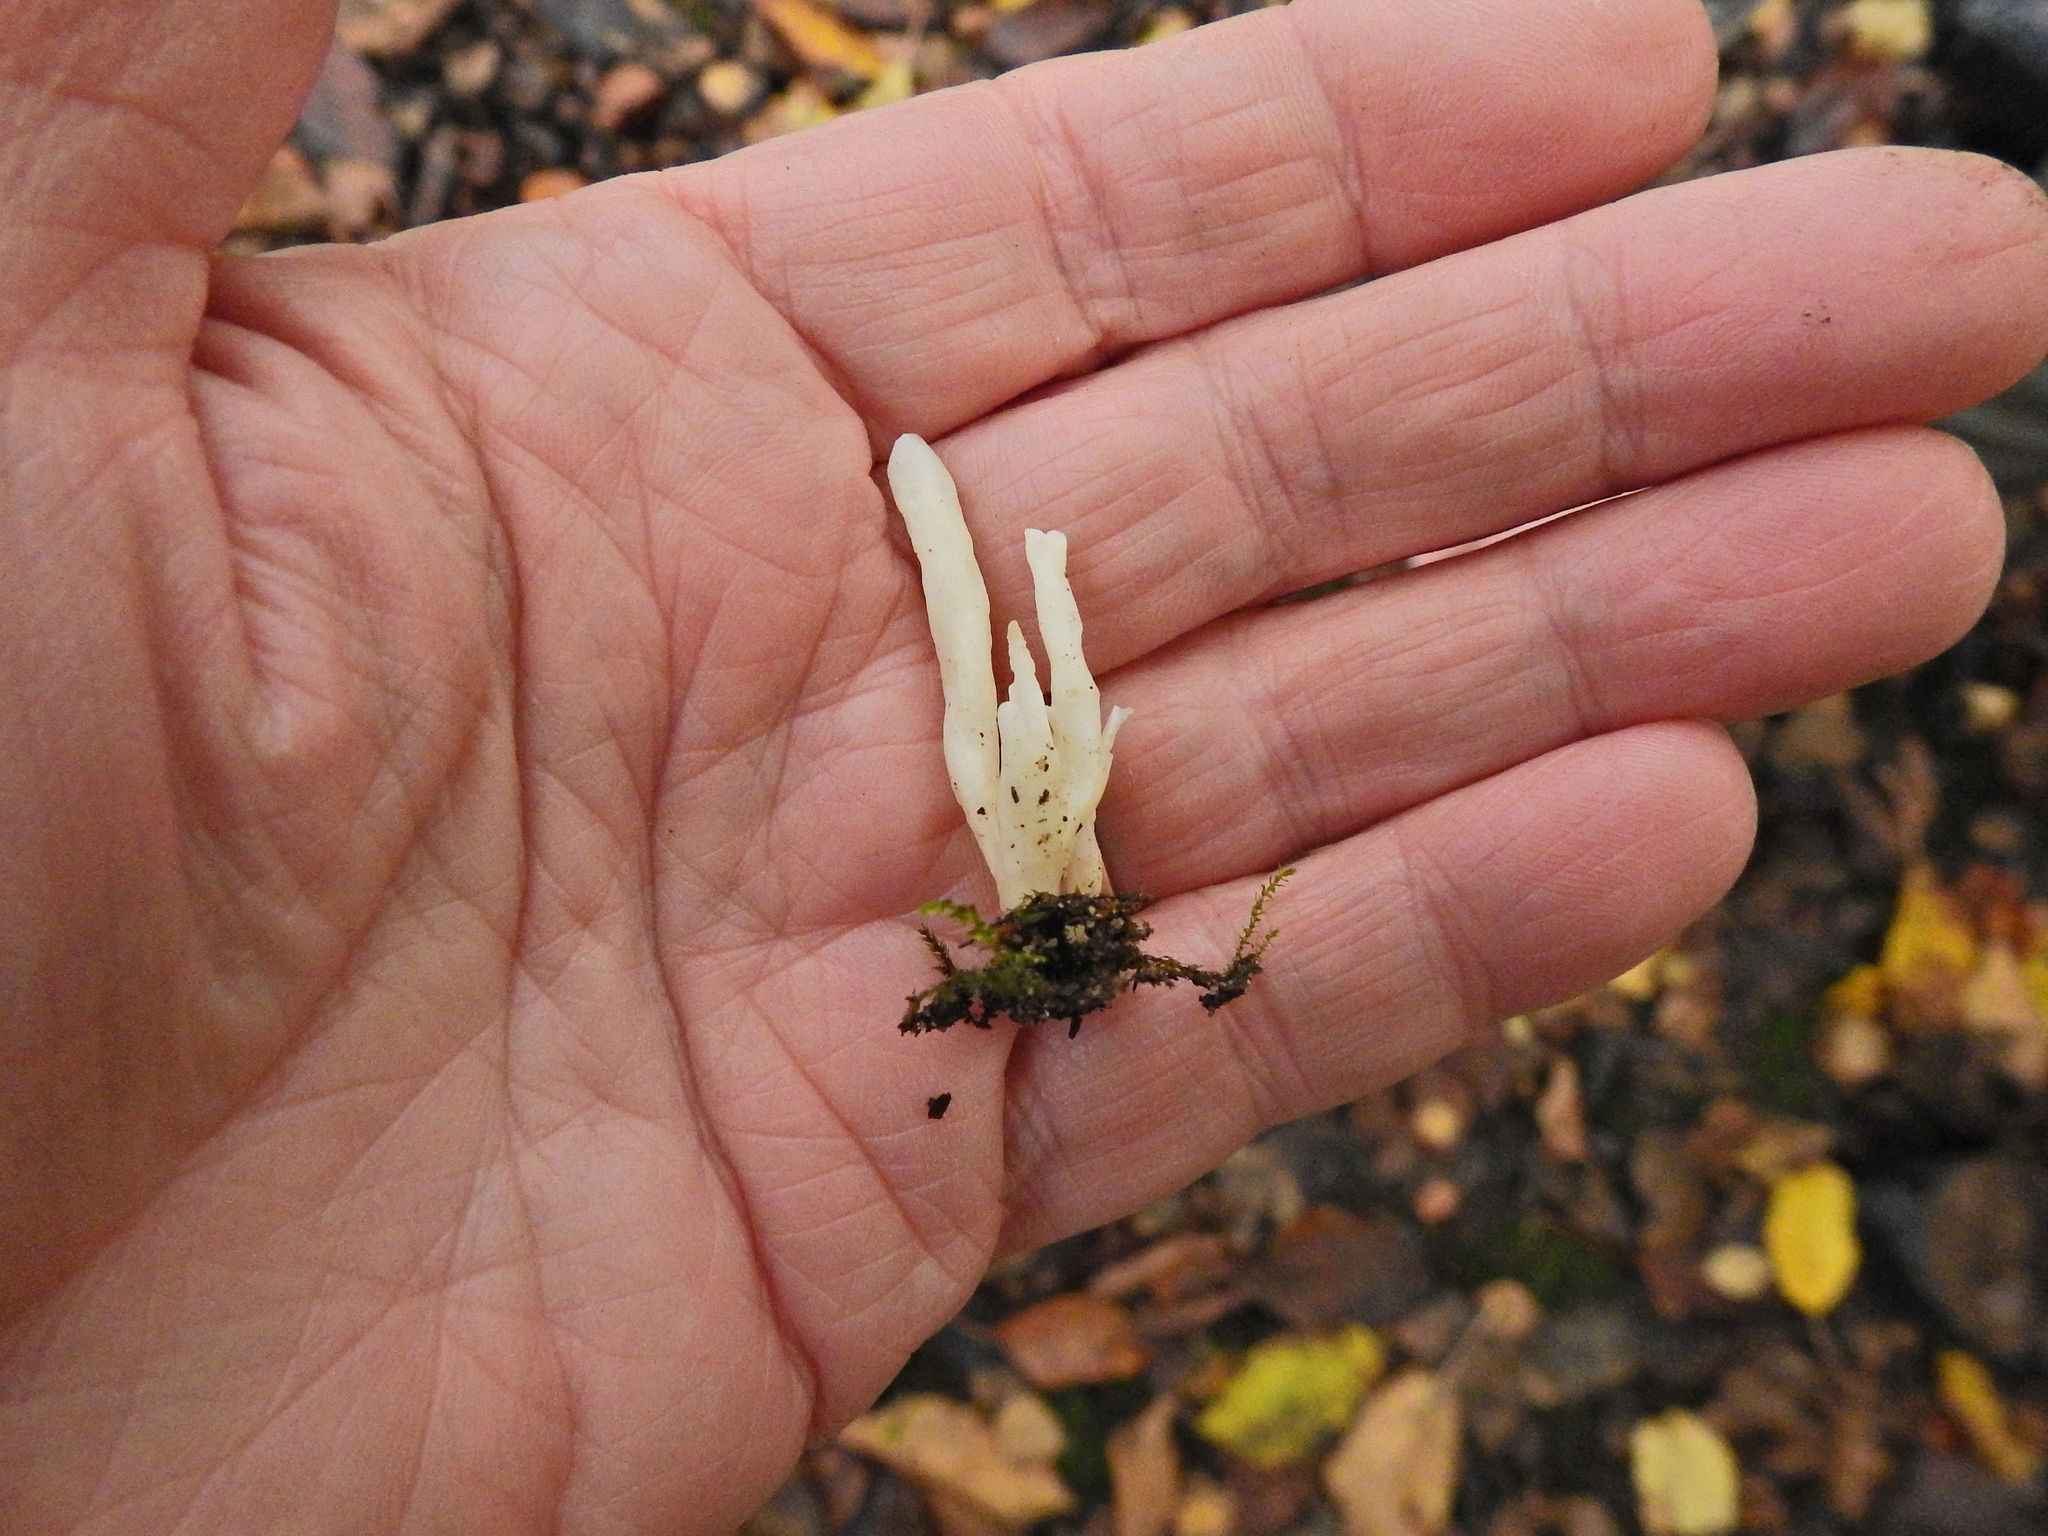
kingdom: Fungi
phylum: Basidiomycota
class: Agaricomycetes
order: Cantharellales
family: Hydnaceae
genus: Clavulina
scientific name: Clavulina rugosa
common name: Wrinkled club
